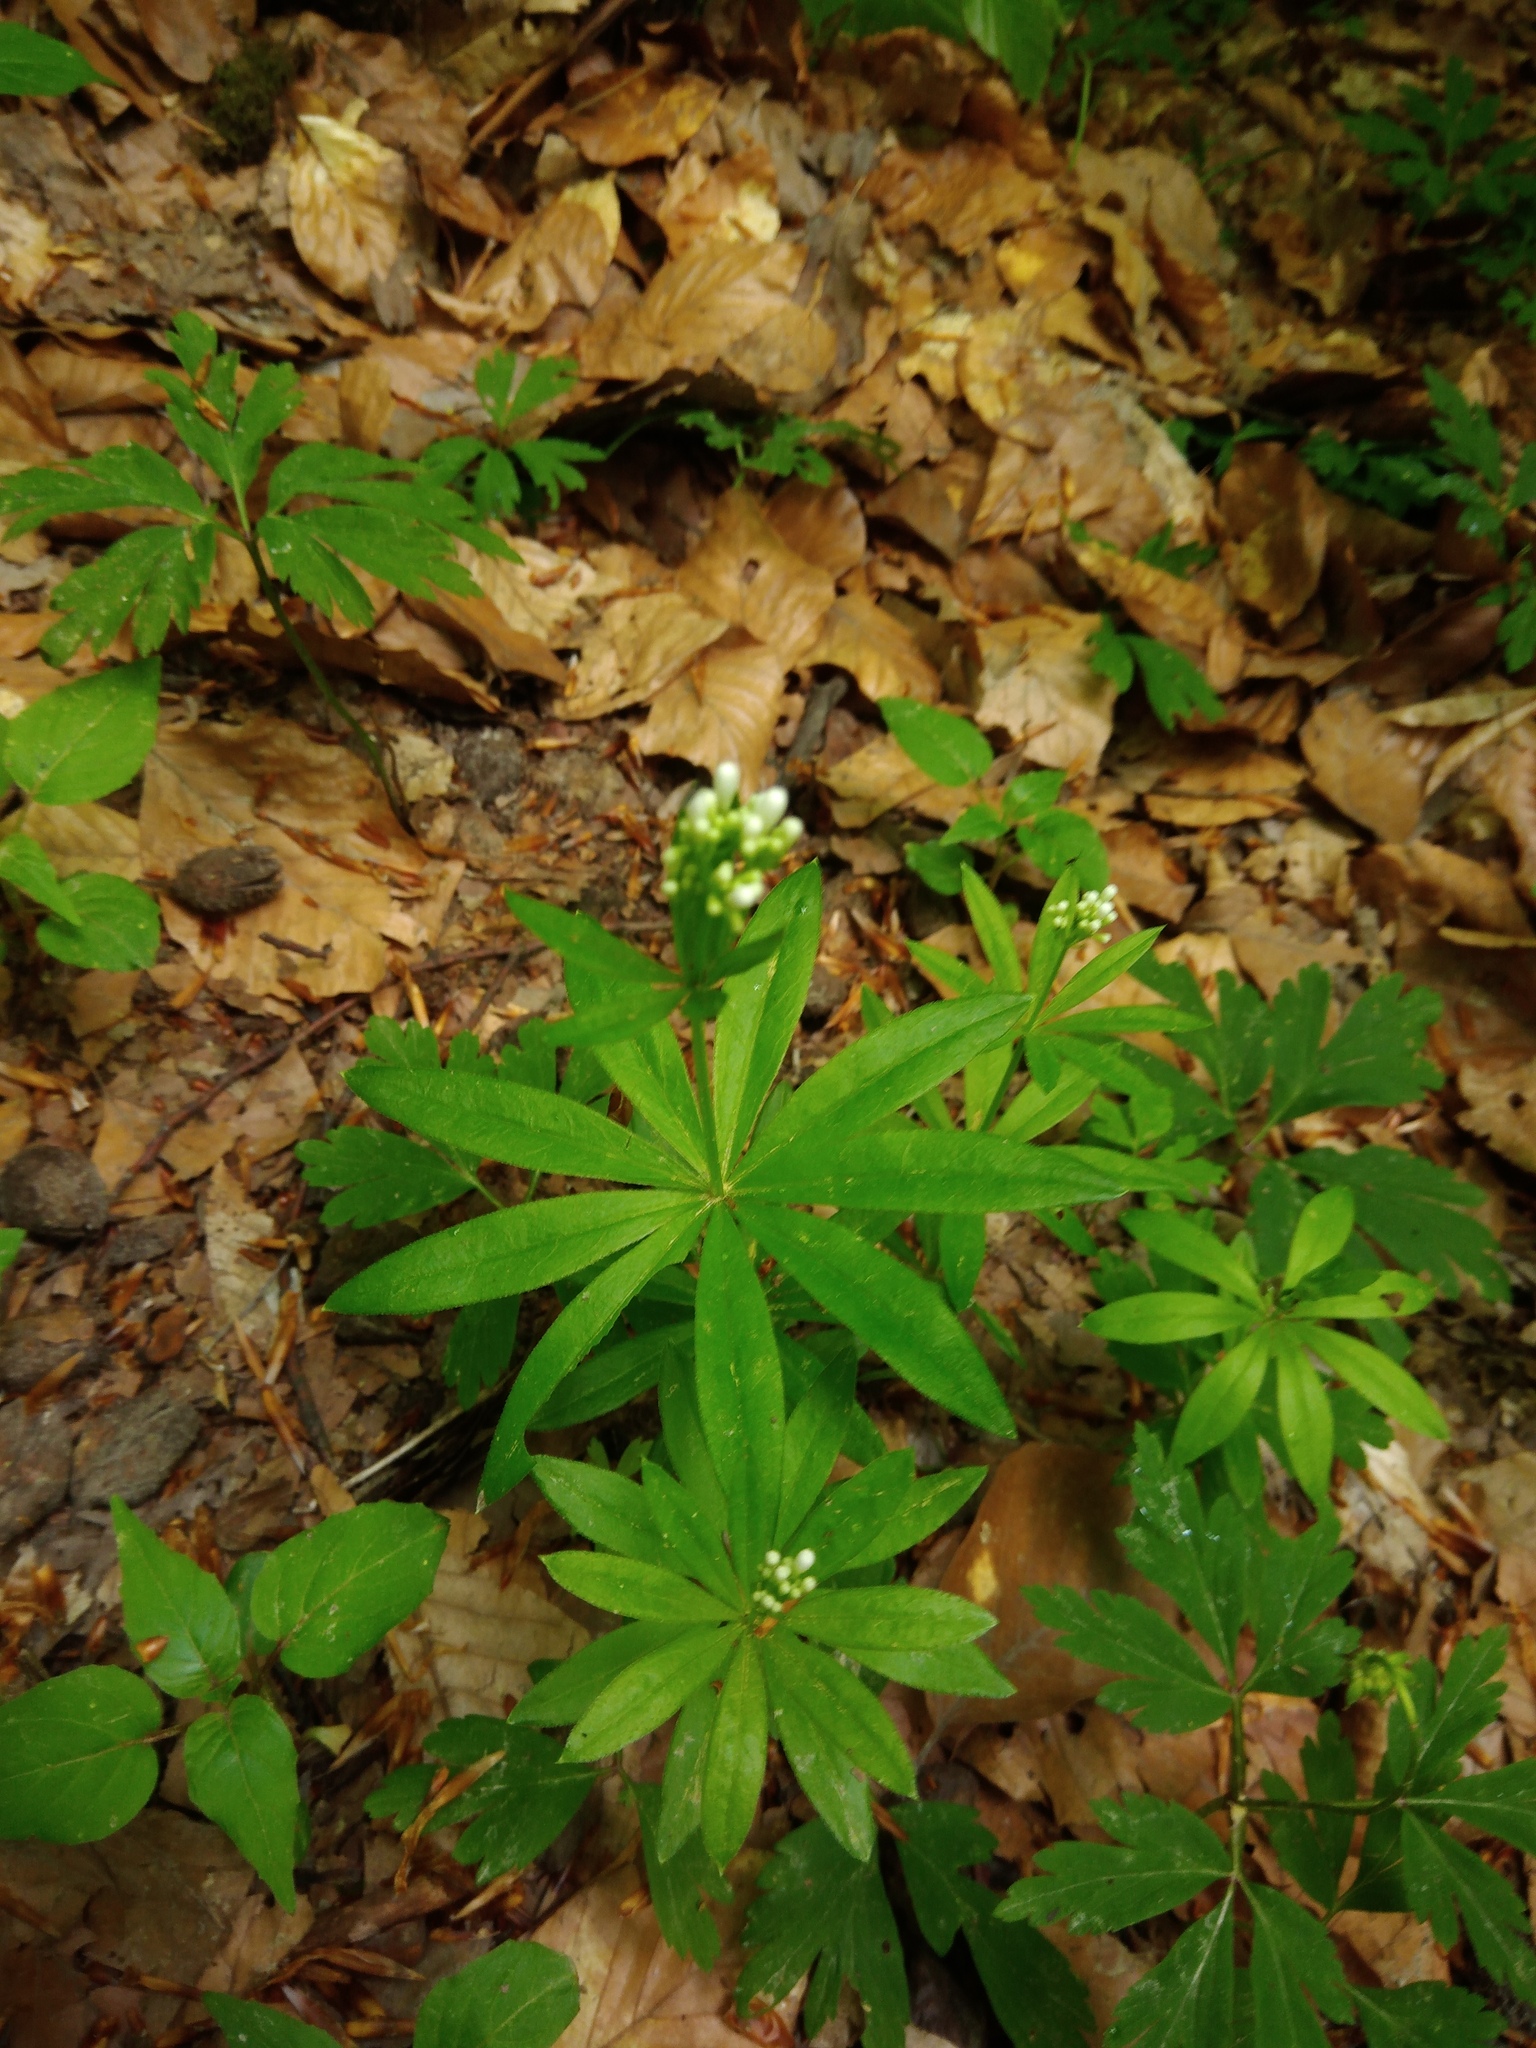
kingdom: Plantae
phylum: Tracheophyta
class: Magnoliopsida
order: Gentianales
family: Rubiaceae
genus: Galium
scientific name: Galium odoratum
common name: Sweet woodruff
